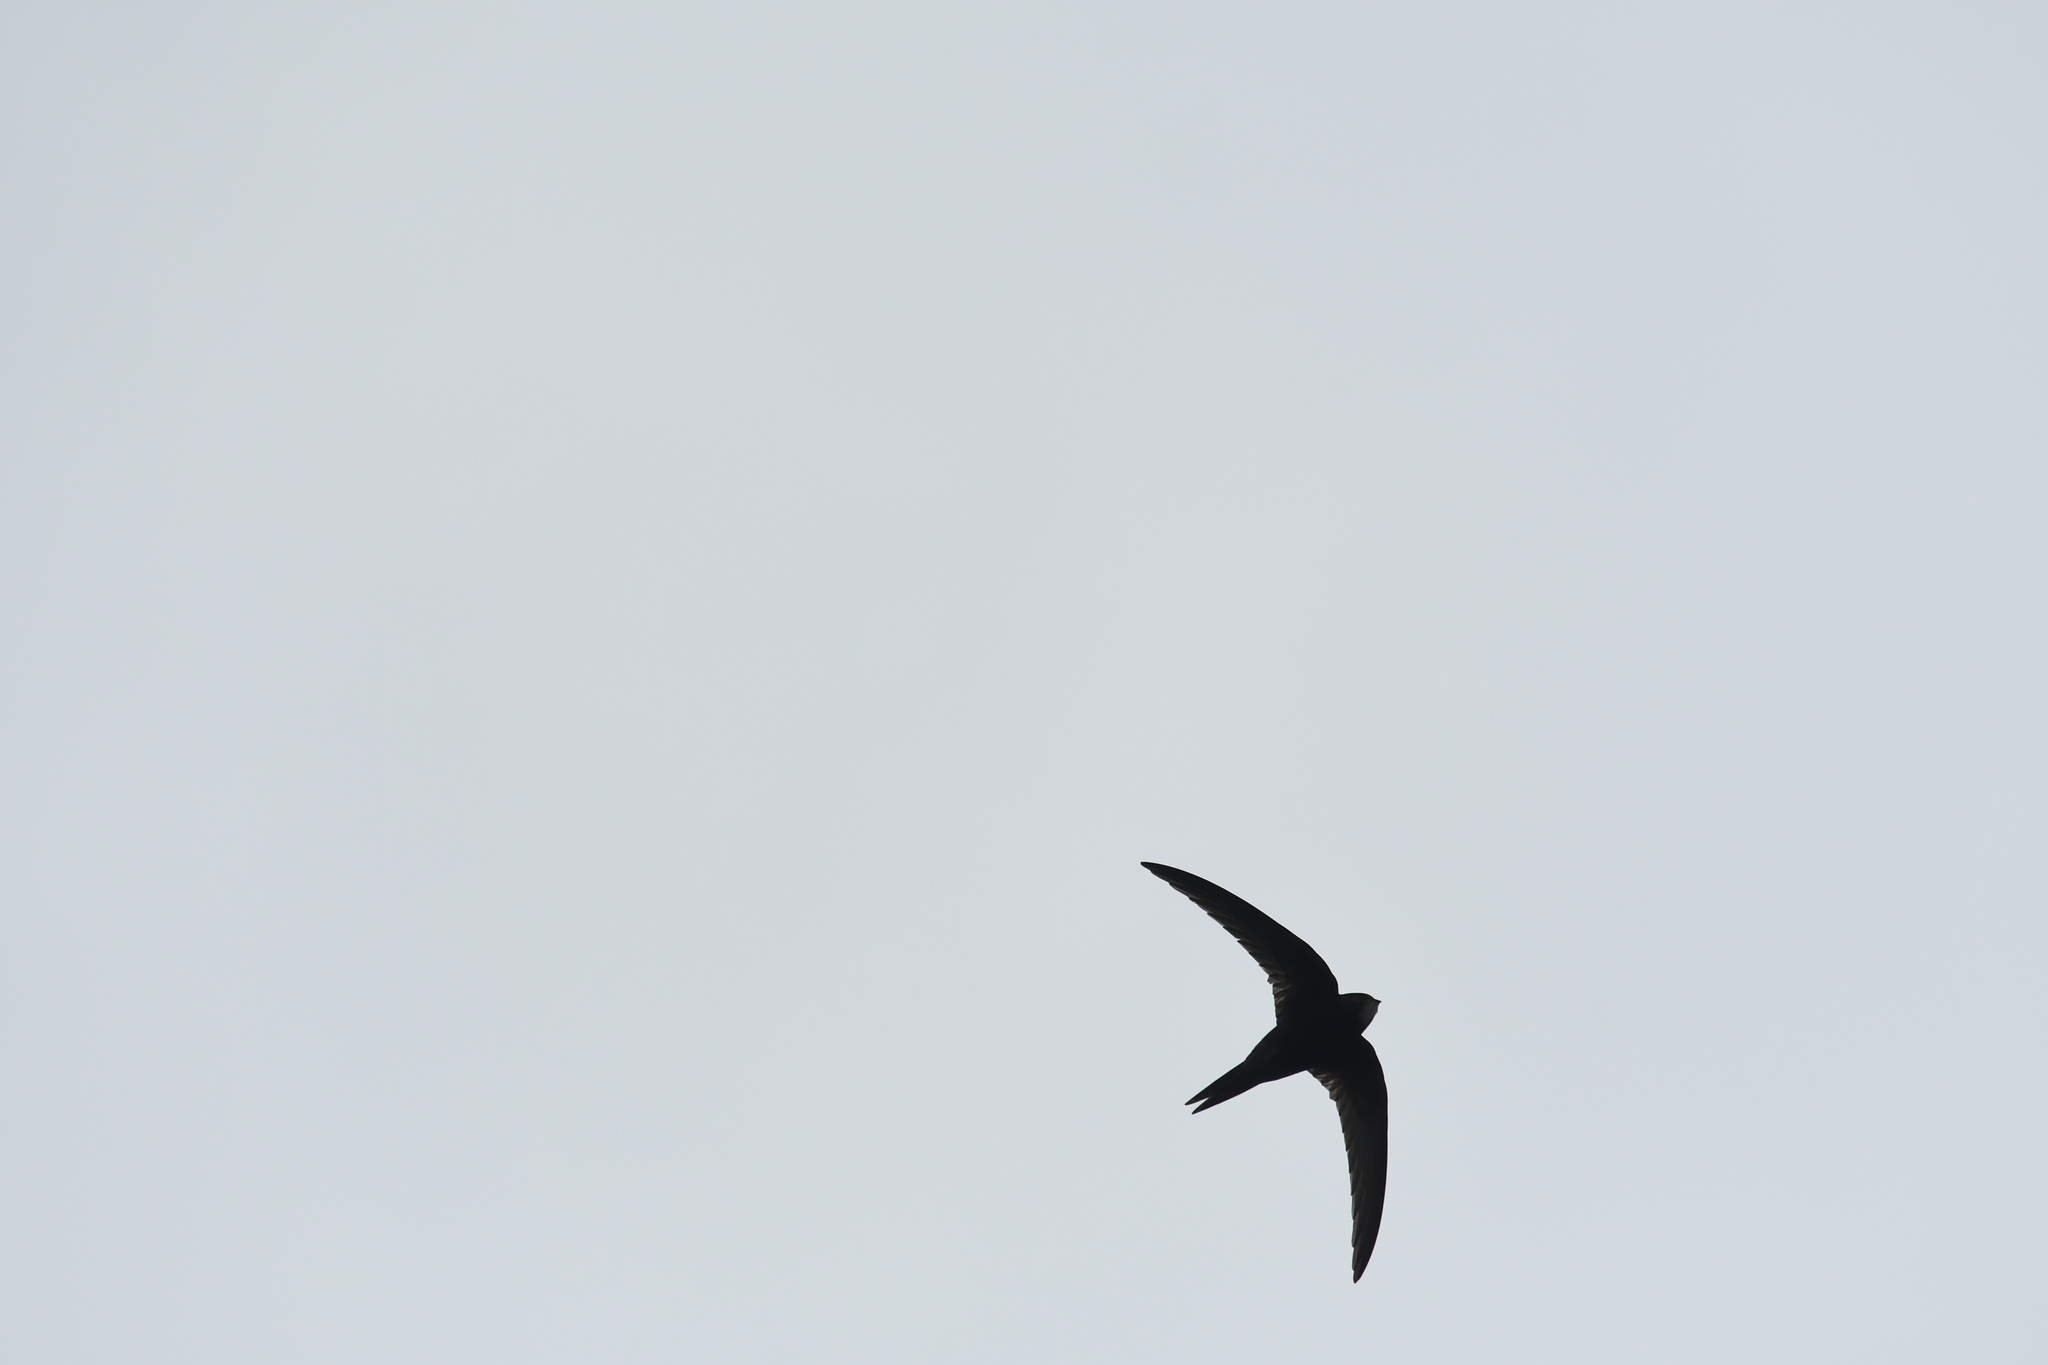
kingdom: Animalia
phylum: Chordata
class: Aves
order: Apodiformes
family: Apodidae
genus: Apus
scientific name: Apus apus
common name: Common swift
